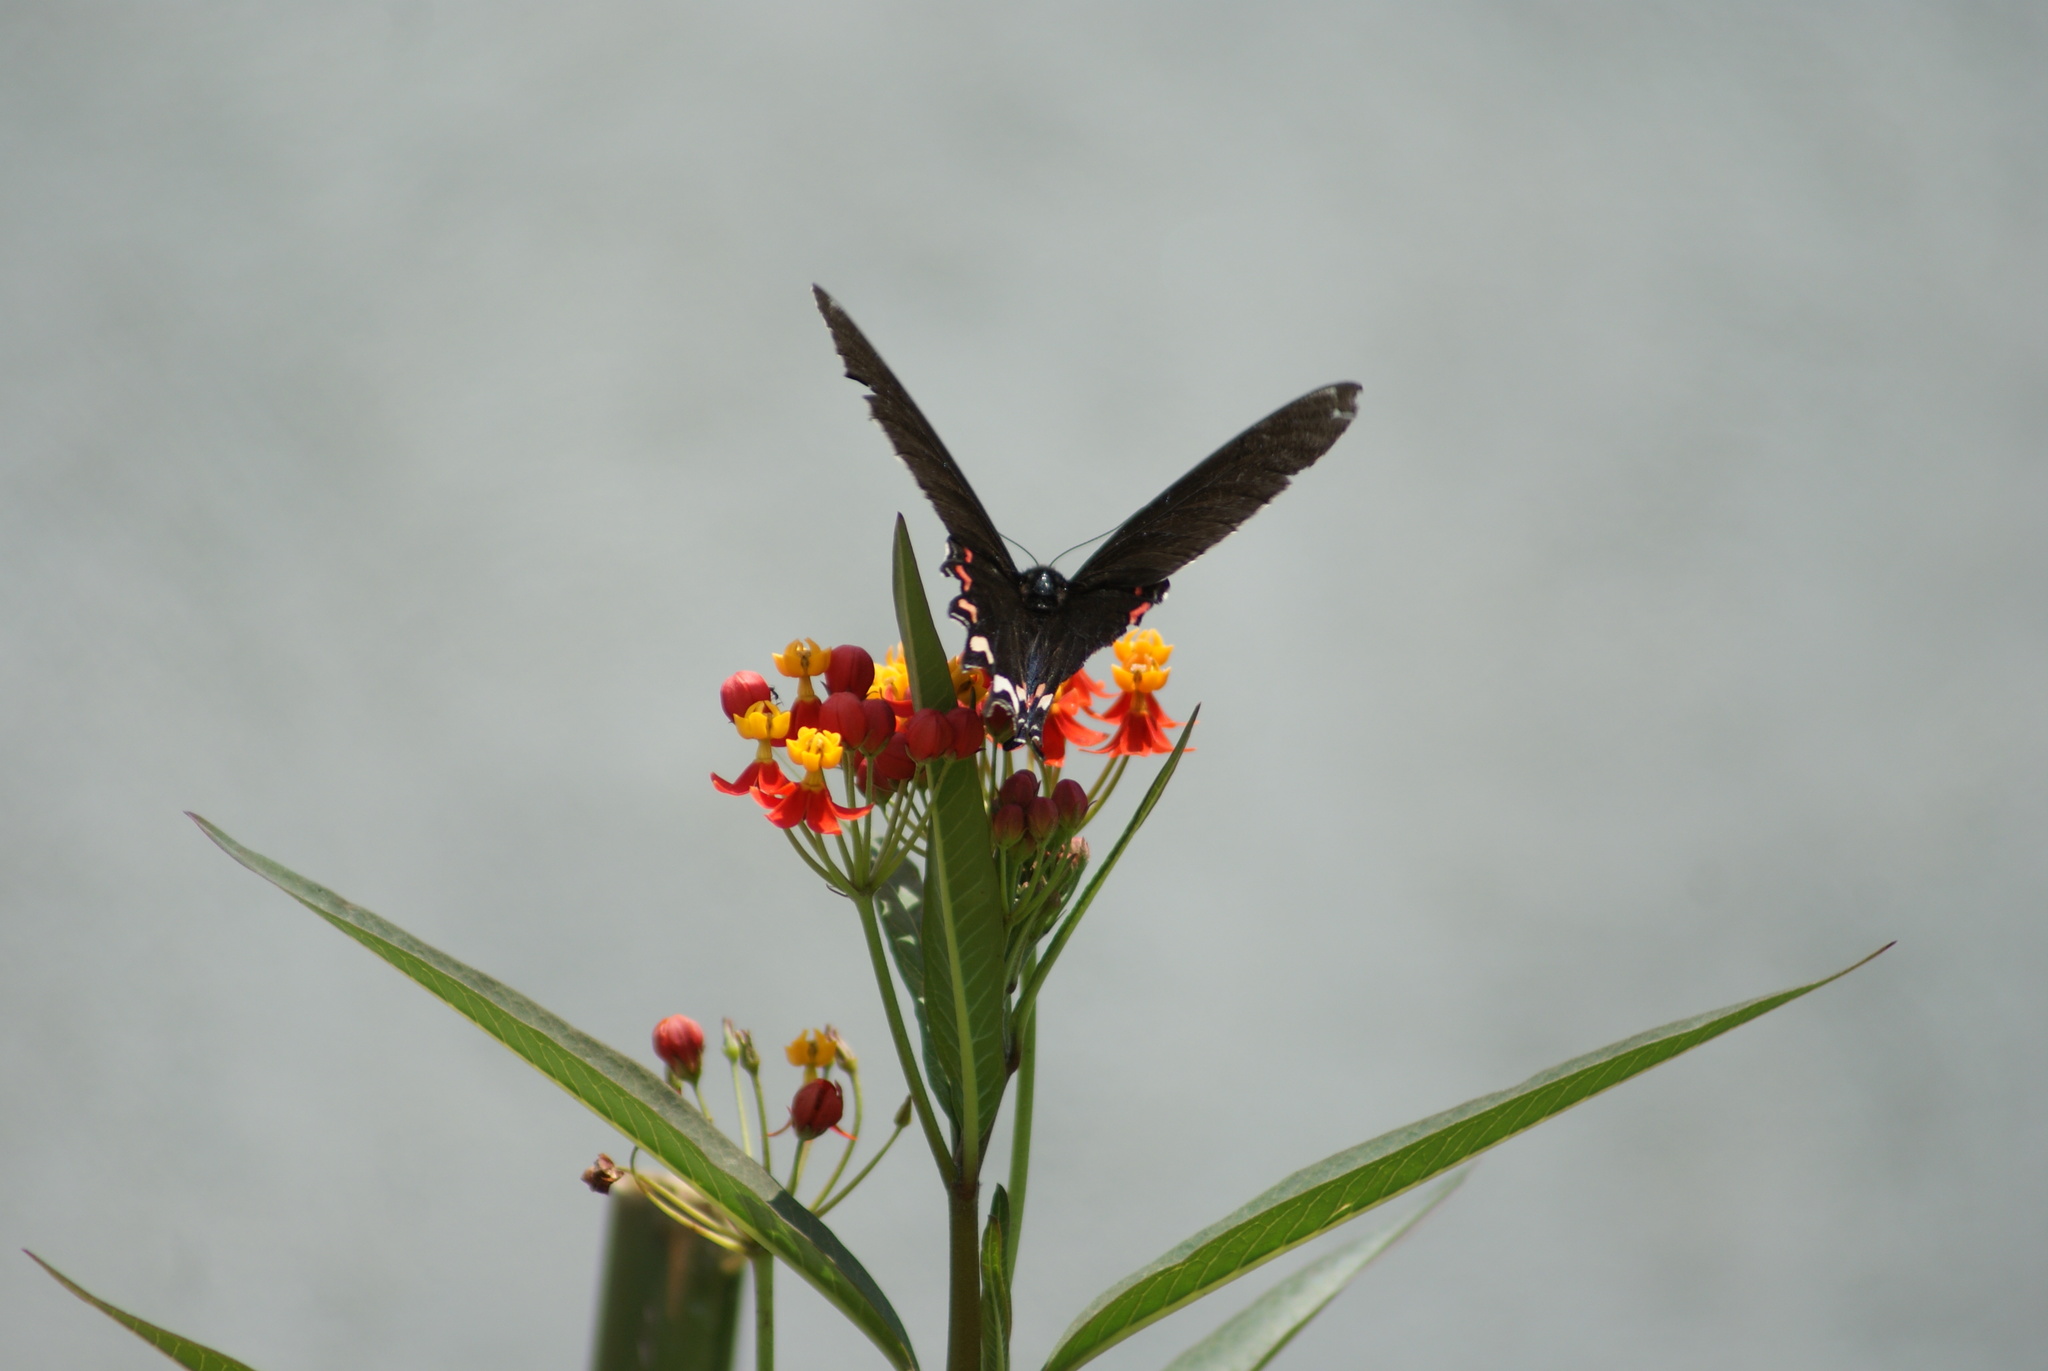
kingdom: Animalia
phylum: Arthropoda
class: Insecta
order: Lepidoptera
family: Papilionidae
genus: Mimoides
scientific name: Mimoides thymbraeus
